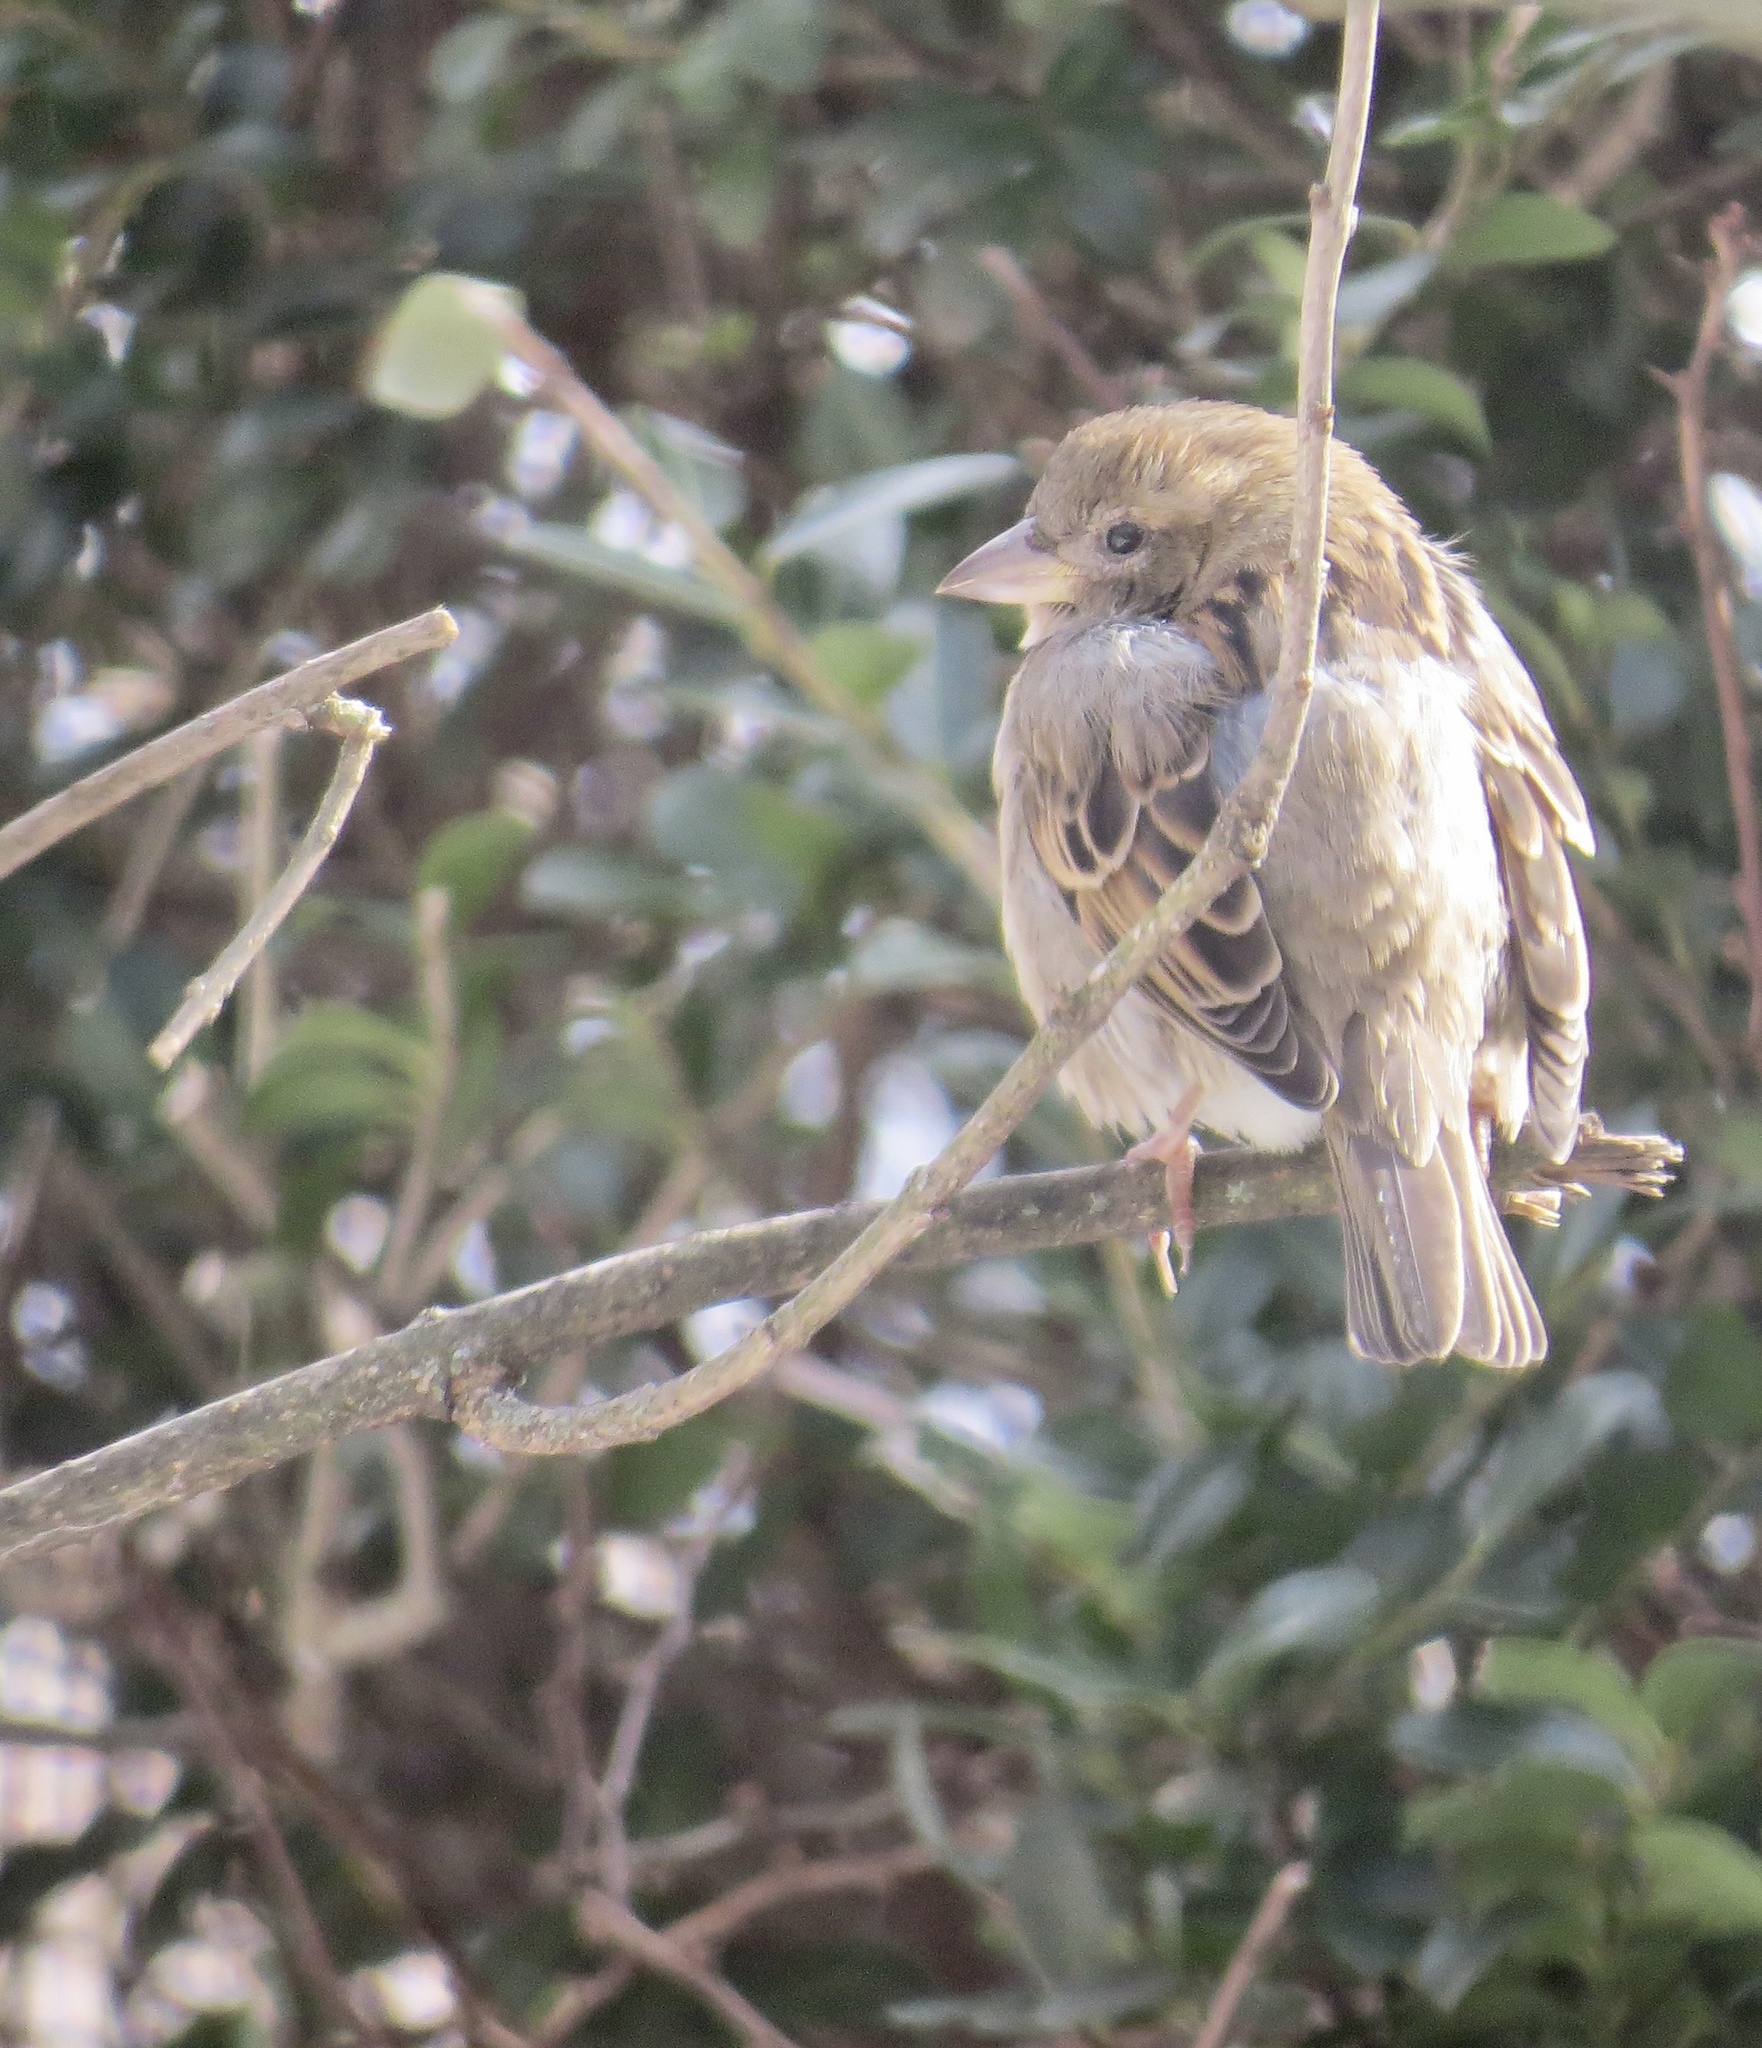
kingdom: Animalia
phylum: Chordata
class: Aves
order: Passeriformes
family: Passeridae
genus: Passer
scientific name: Passer domesticus
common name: House sparrow
